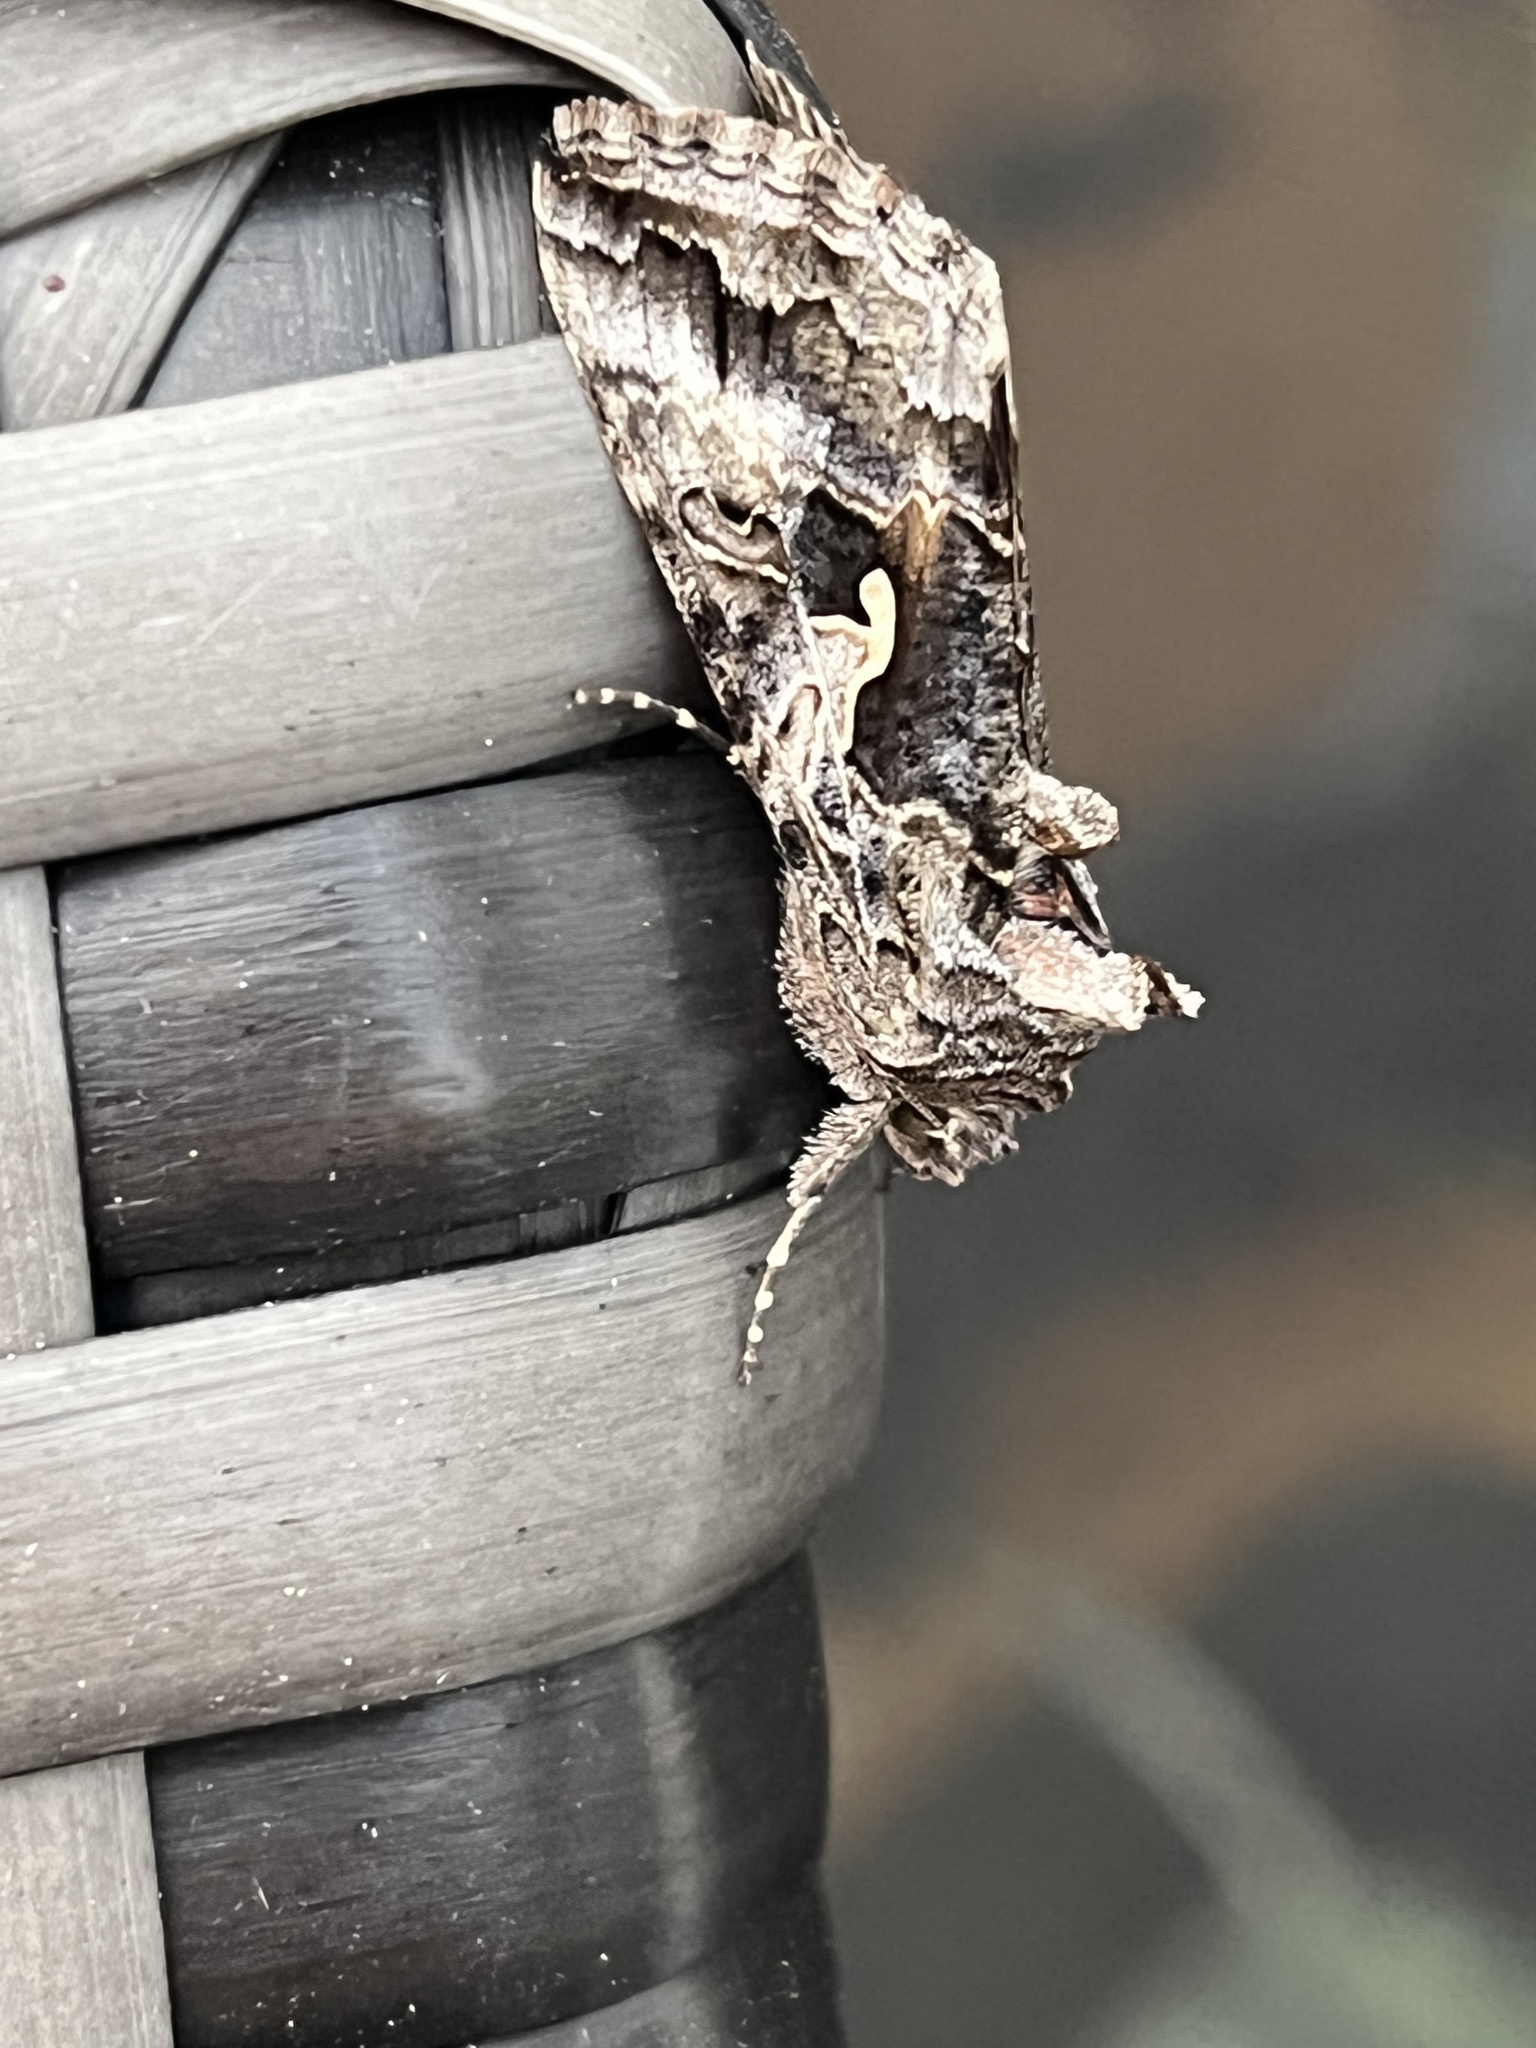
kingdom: Animalia
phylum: Arthropoda
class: Insecta
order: Lepidoptera
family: Noctuidae
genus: Autographa
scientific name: Autographa californica
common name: Alfalfa looper
